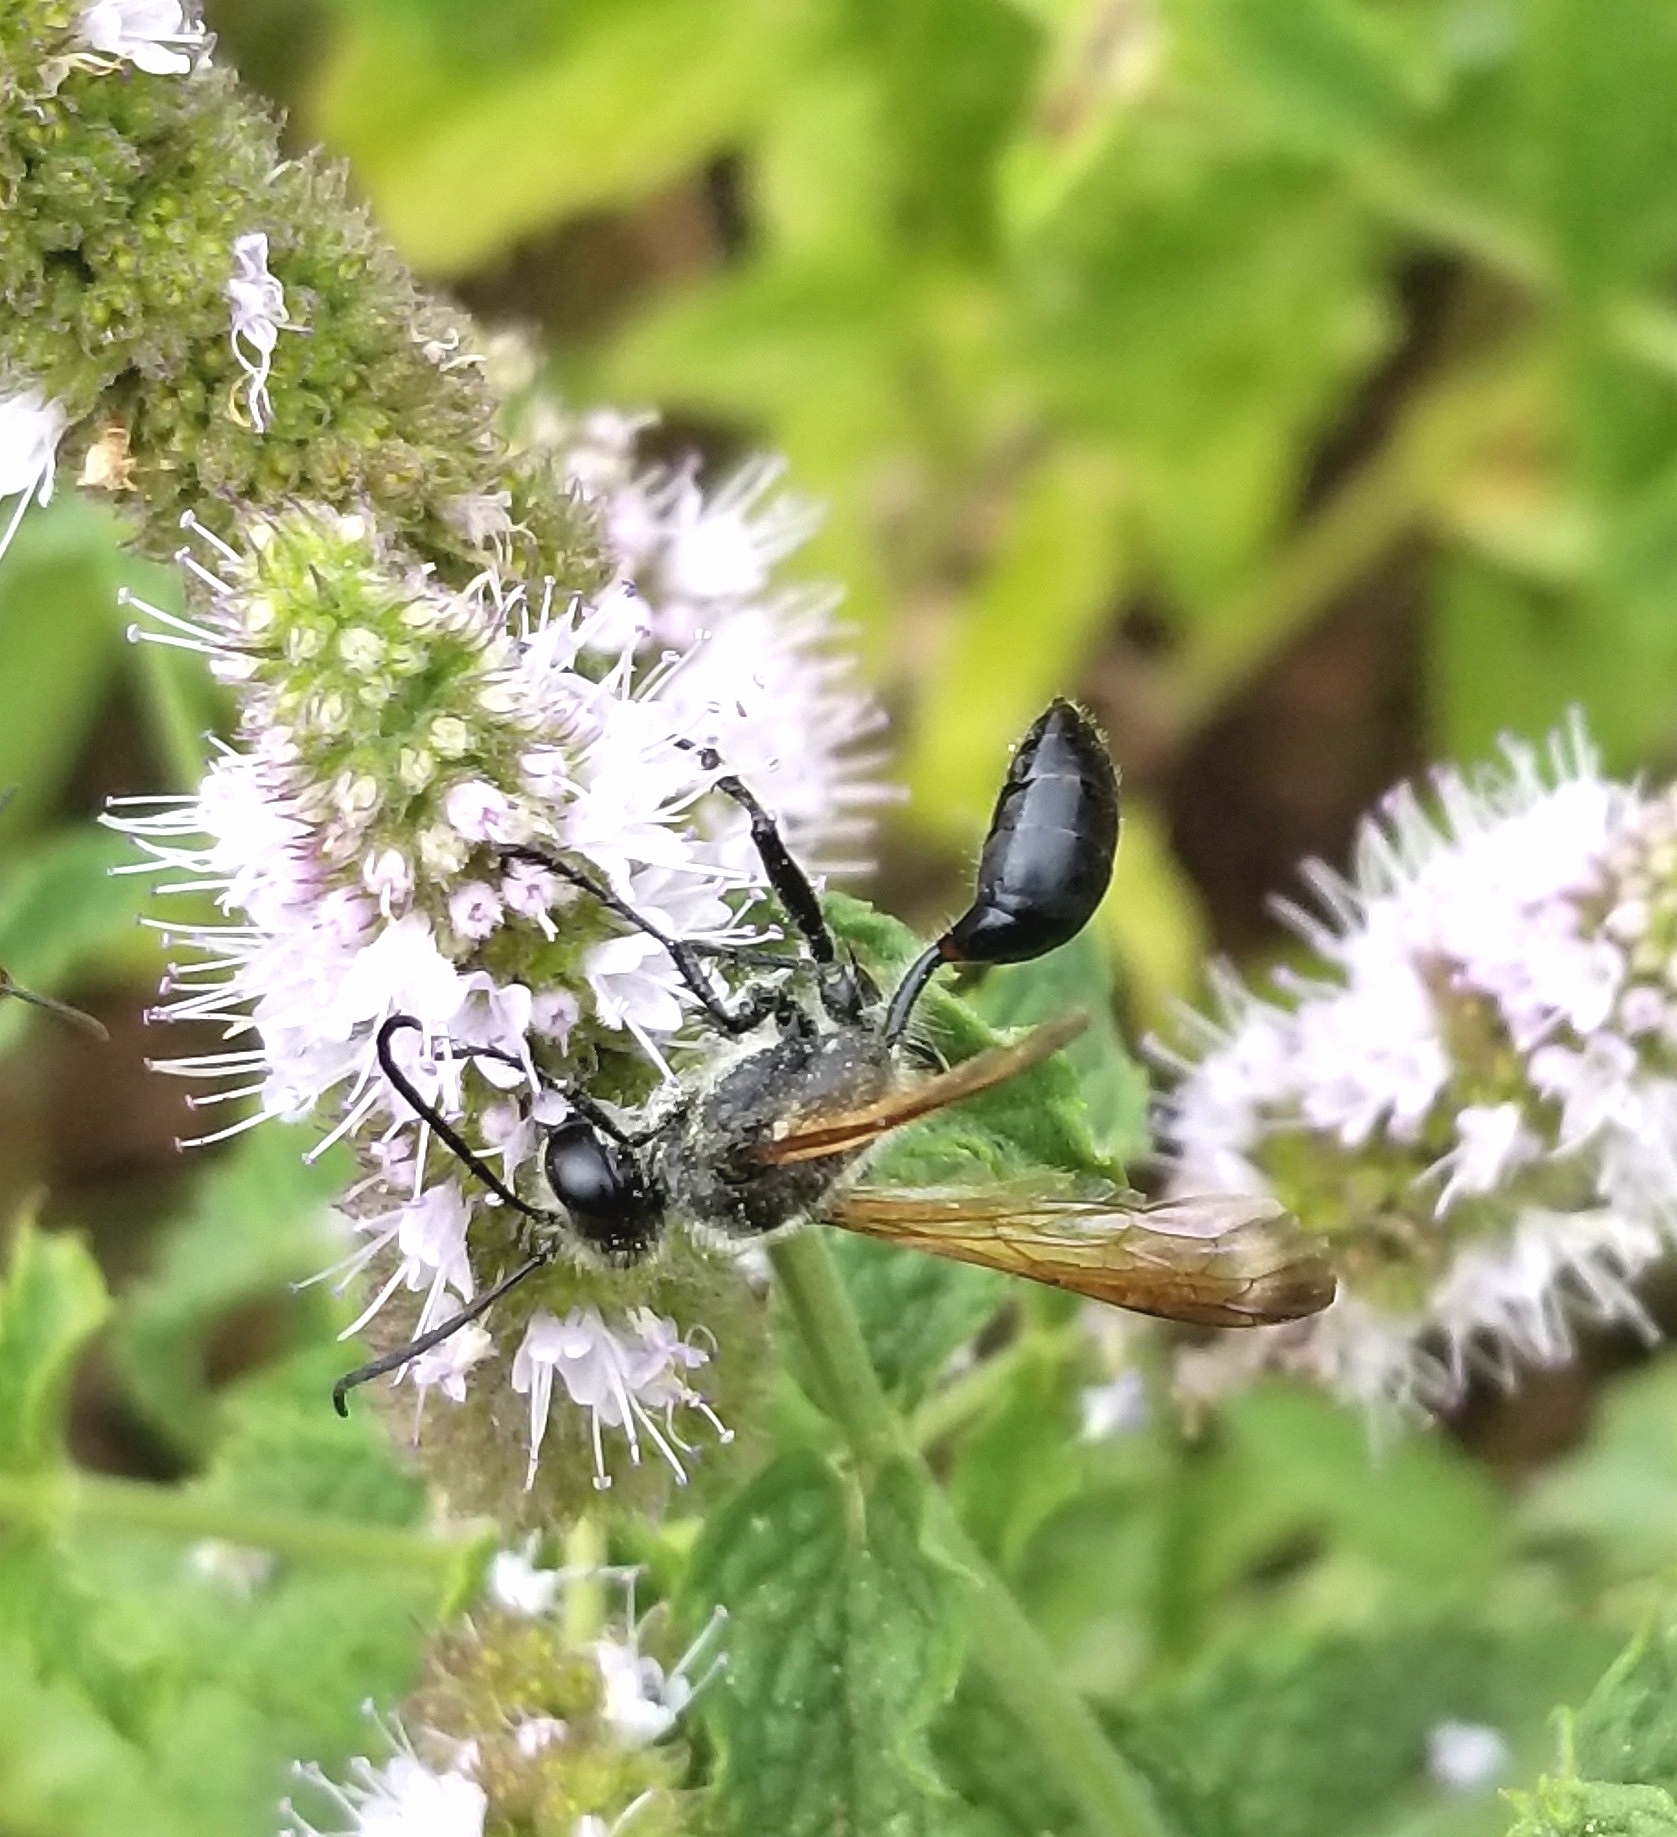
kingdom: Animalia
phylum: Arthropoda
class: Insecta
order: Hymenoptera
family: Sphecidae
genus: Isodontia
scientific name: Isodontia mexicana
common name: Mud dauber
